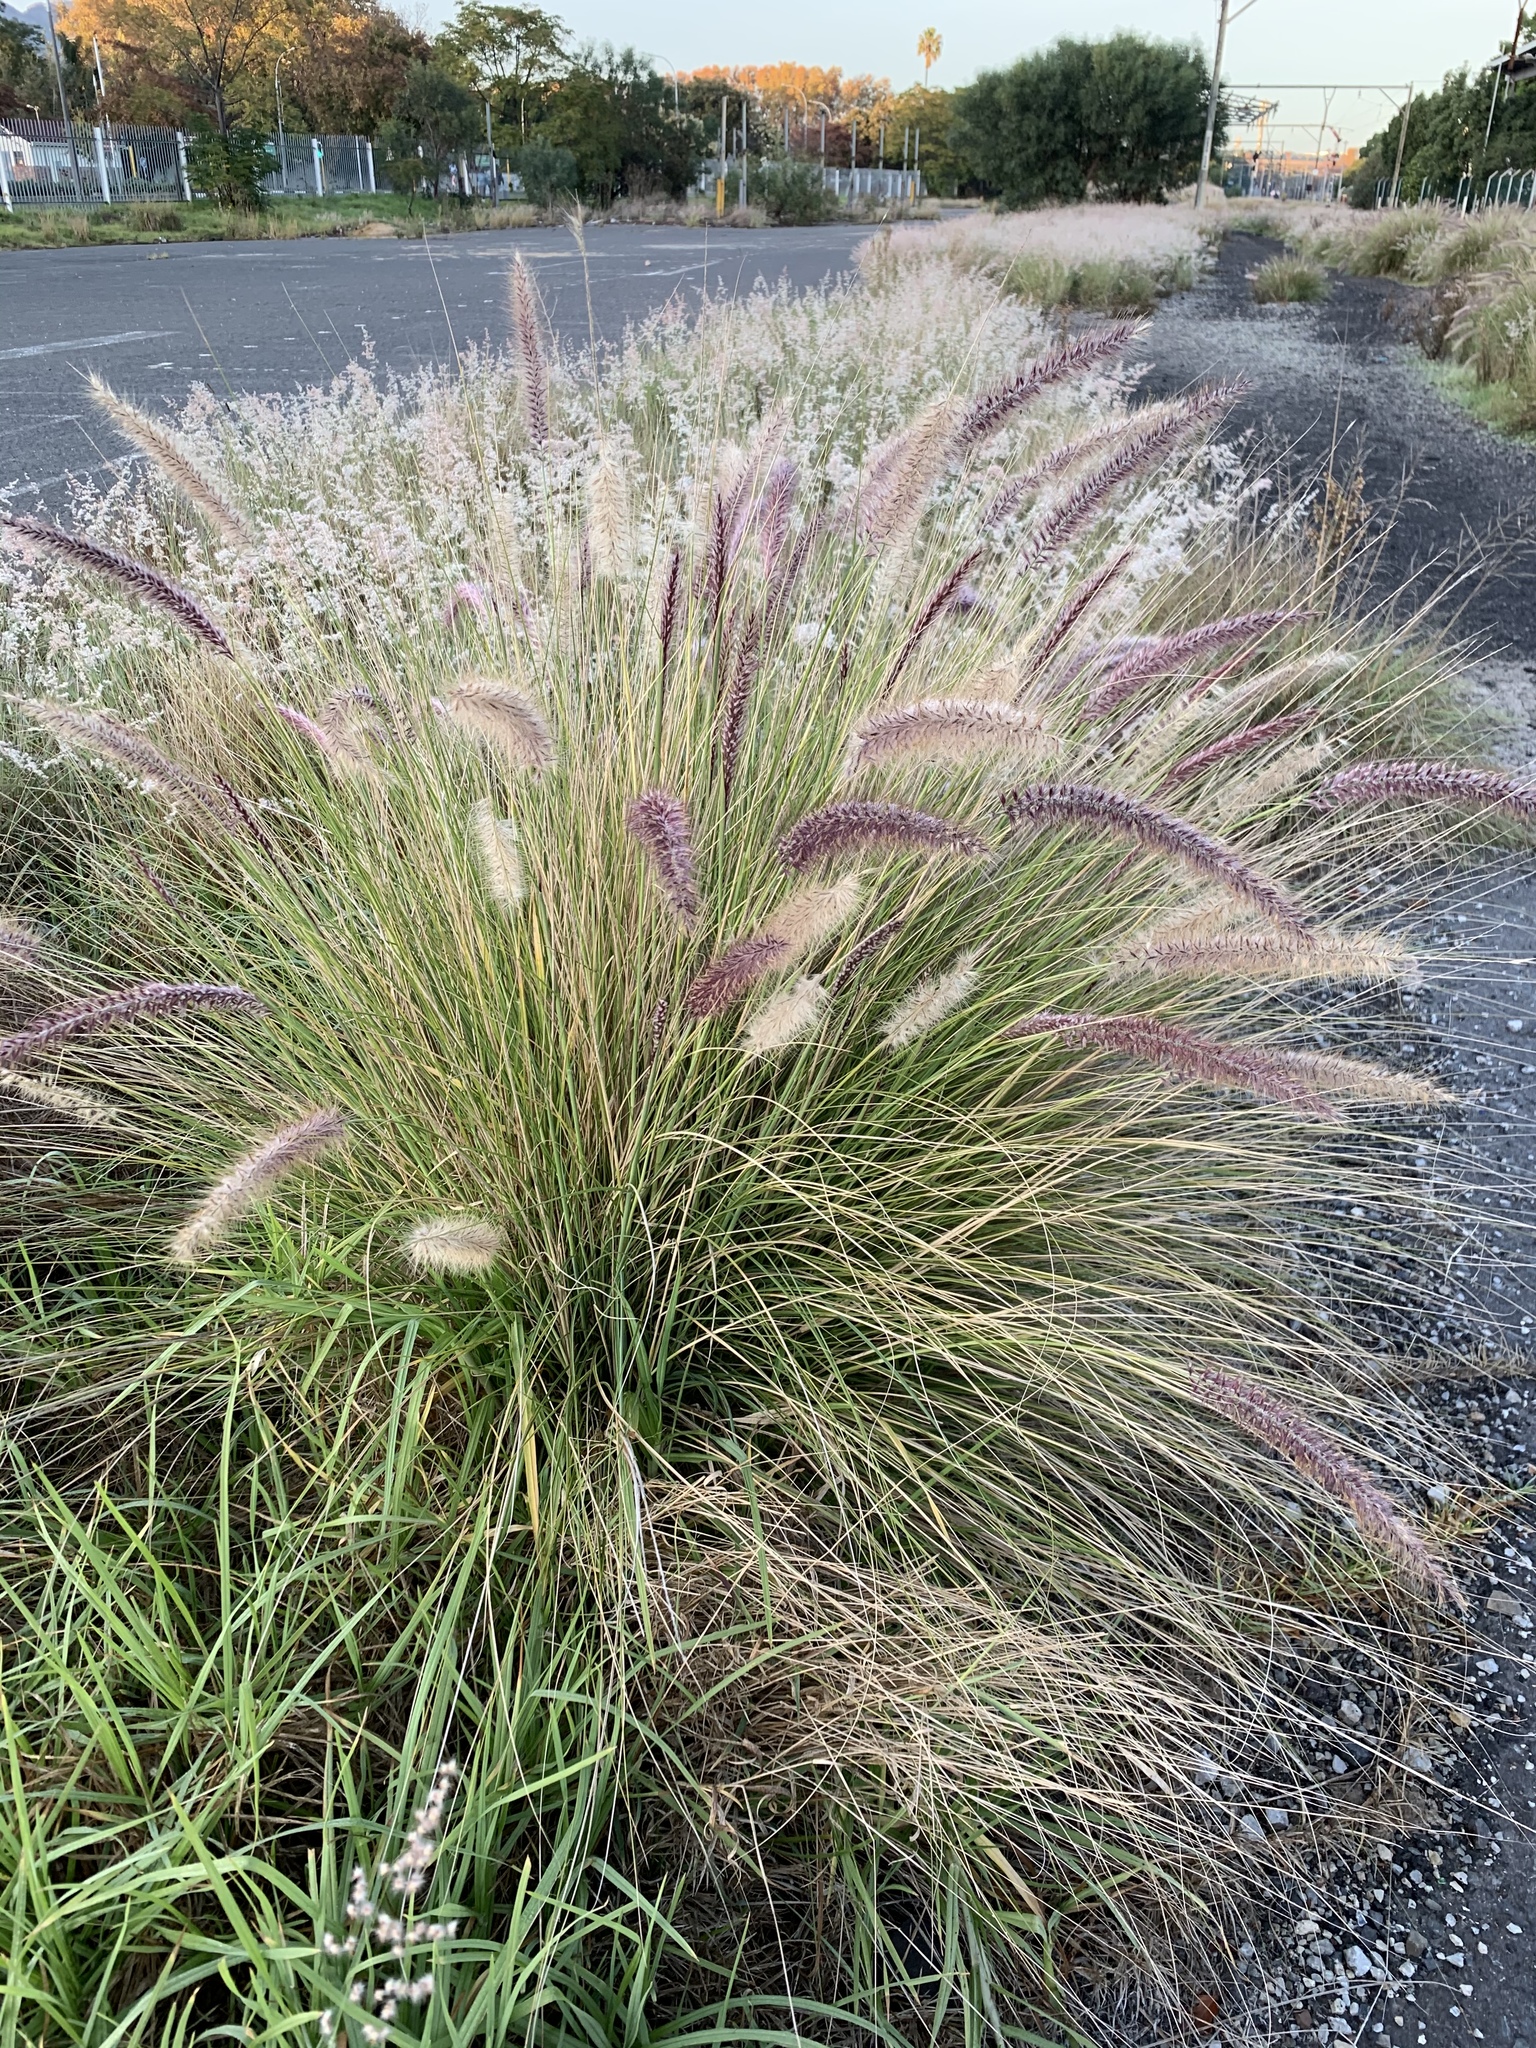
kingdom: Plantae
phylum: Tracheophyta
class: Liliopsida
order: Poales
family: Poaceae
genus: Cenchrus
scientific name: Cenchrus setaceus
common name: Crimson fountaingrass
